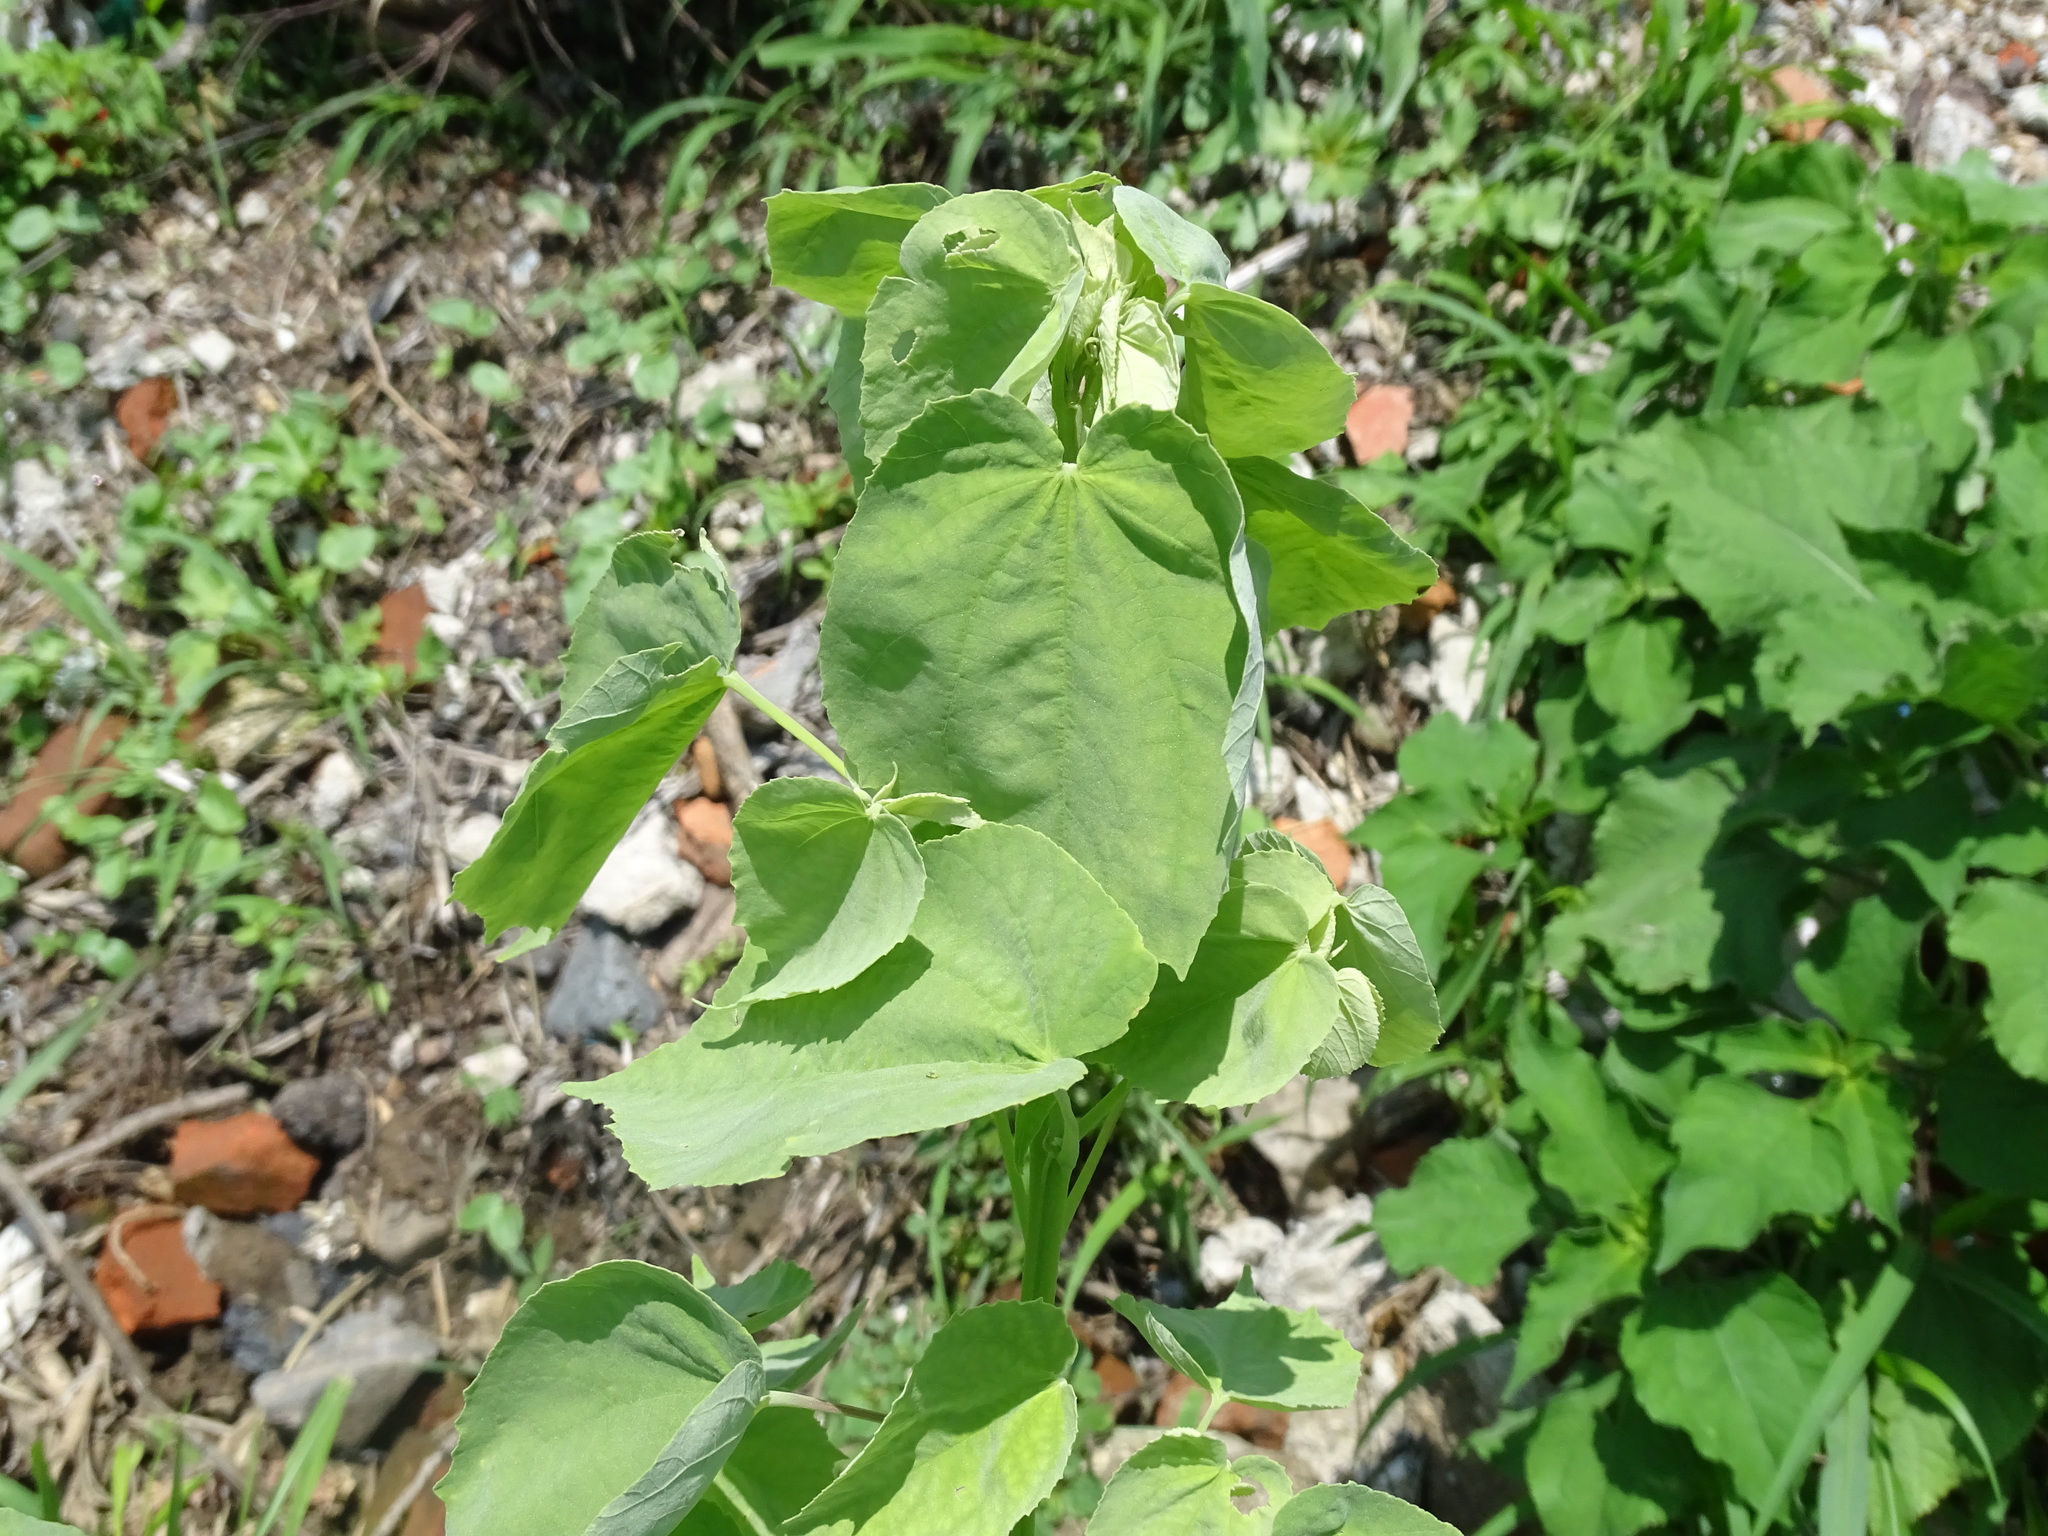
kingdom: Plantae
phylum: Tracheophyta
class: Magnoliopsida
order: Malvales
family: Malvaceae
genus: Abutilon
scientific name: Abutilon trisulcatum
